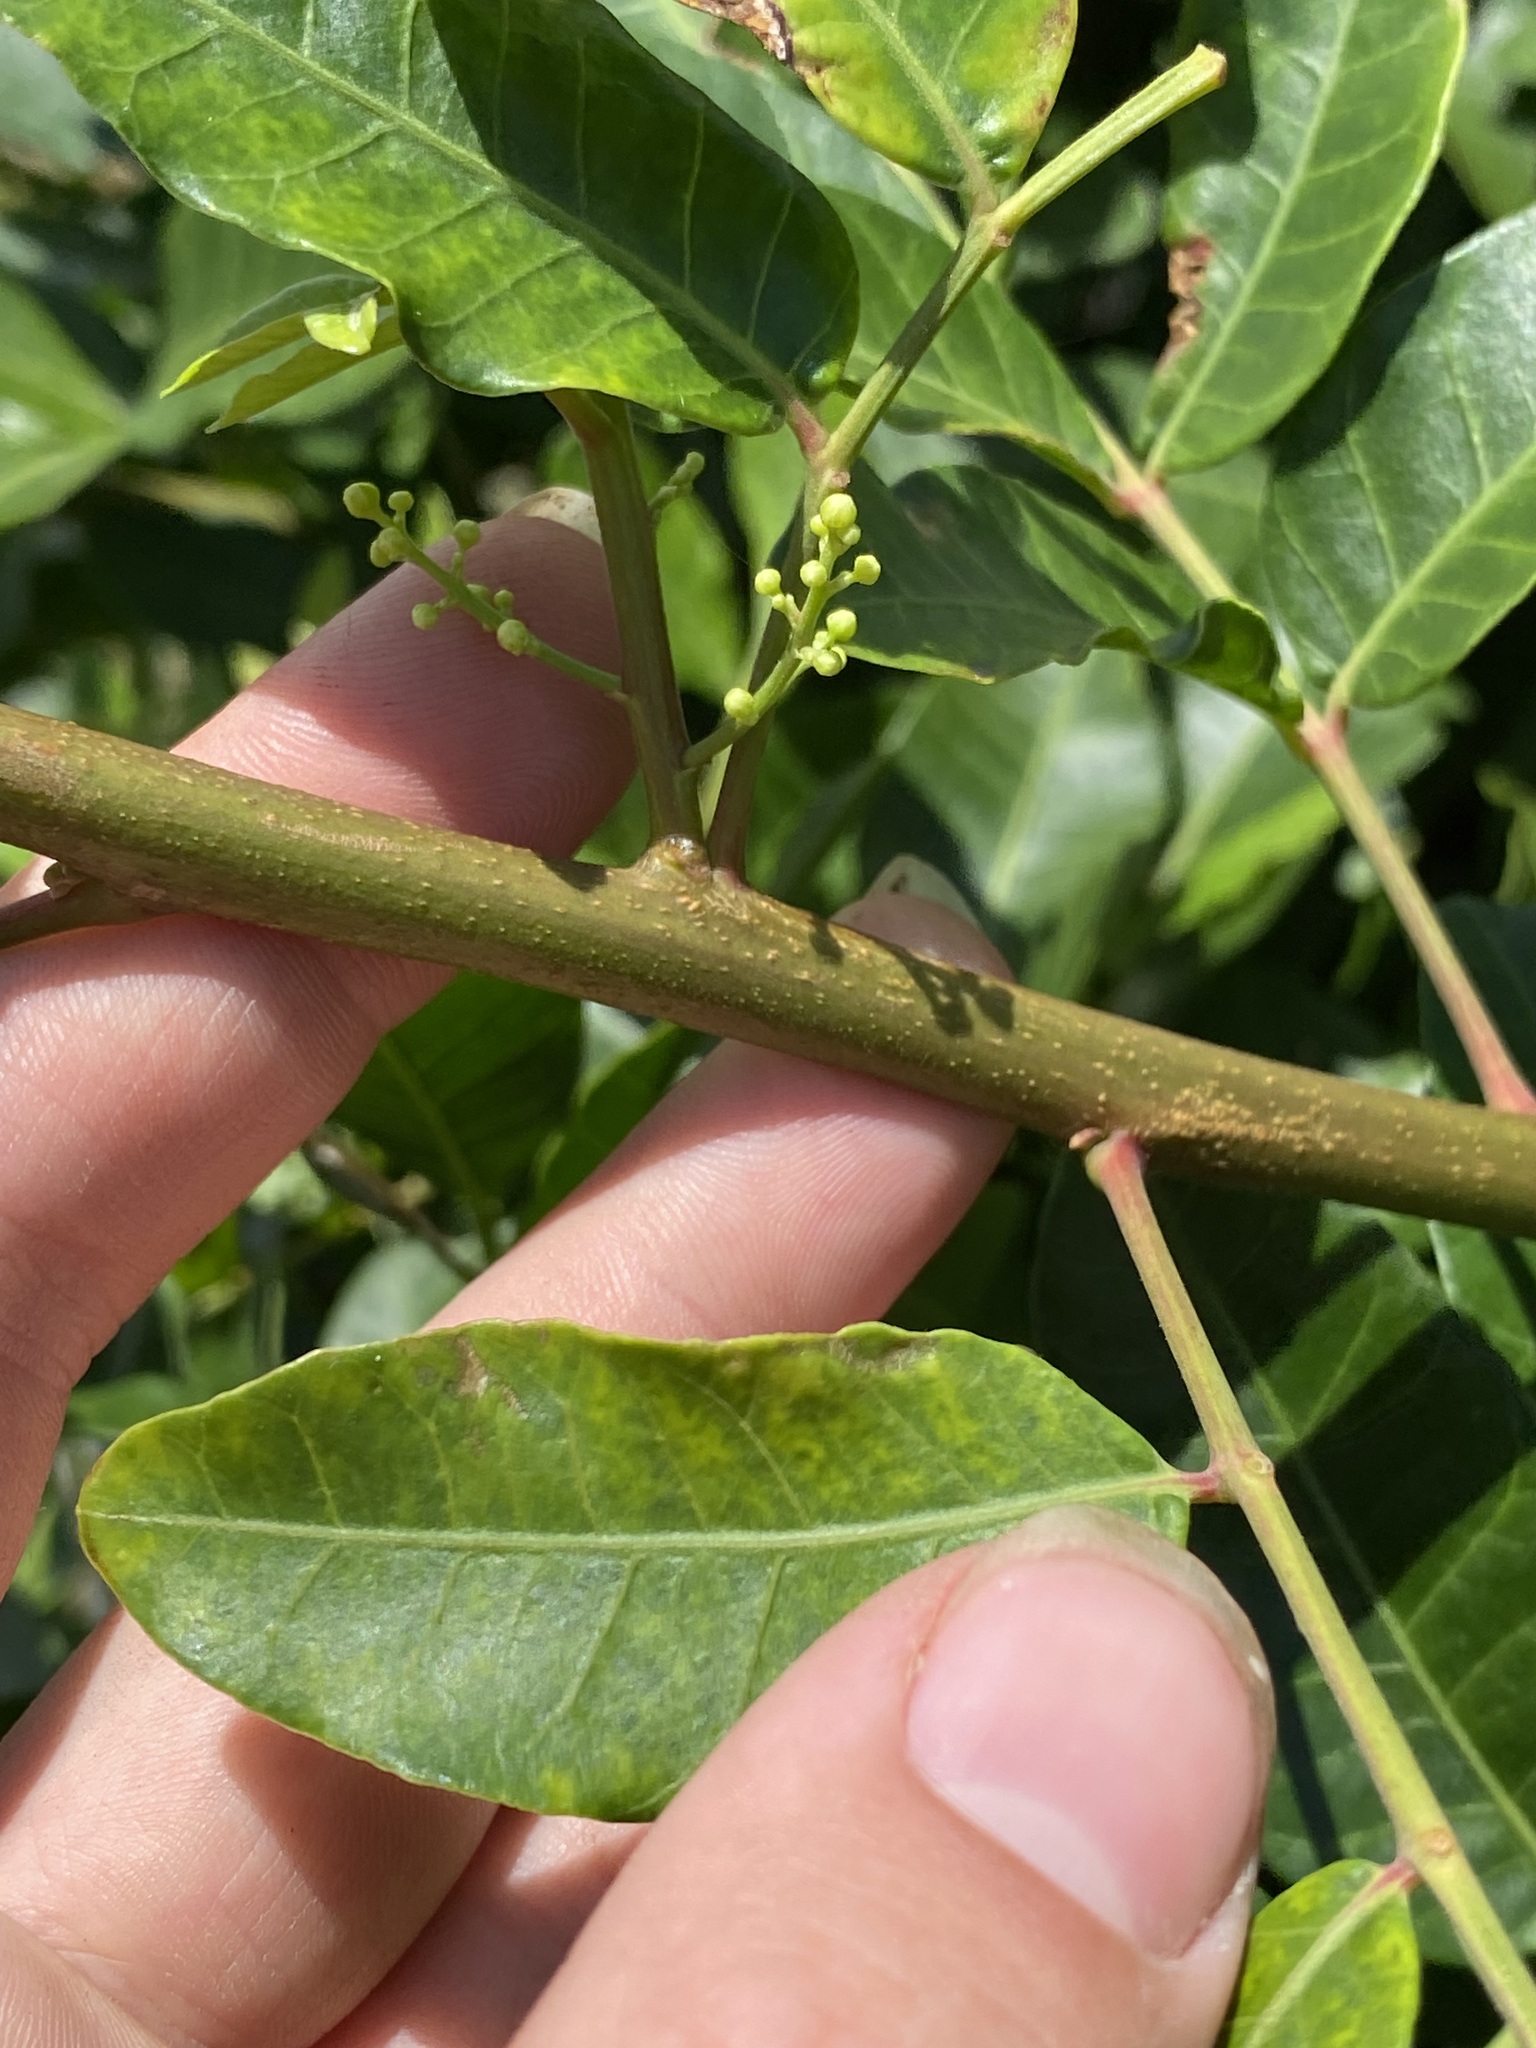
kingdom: Plantae
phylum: Tracheophyta
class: Magnoliopsida
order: Sapindales
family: Anacardiaceae
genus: Schinus
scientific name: Schinus terebinthifolia
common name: Brazilian peppertree
